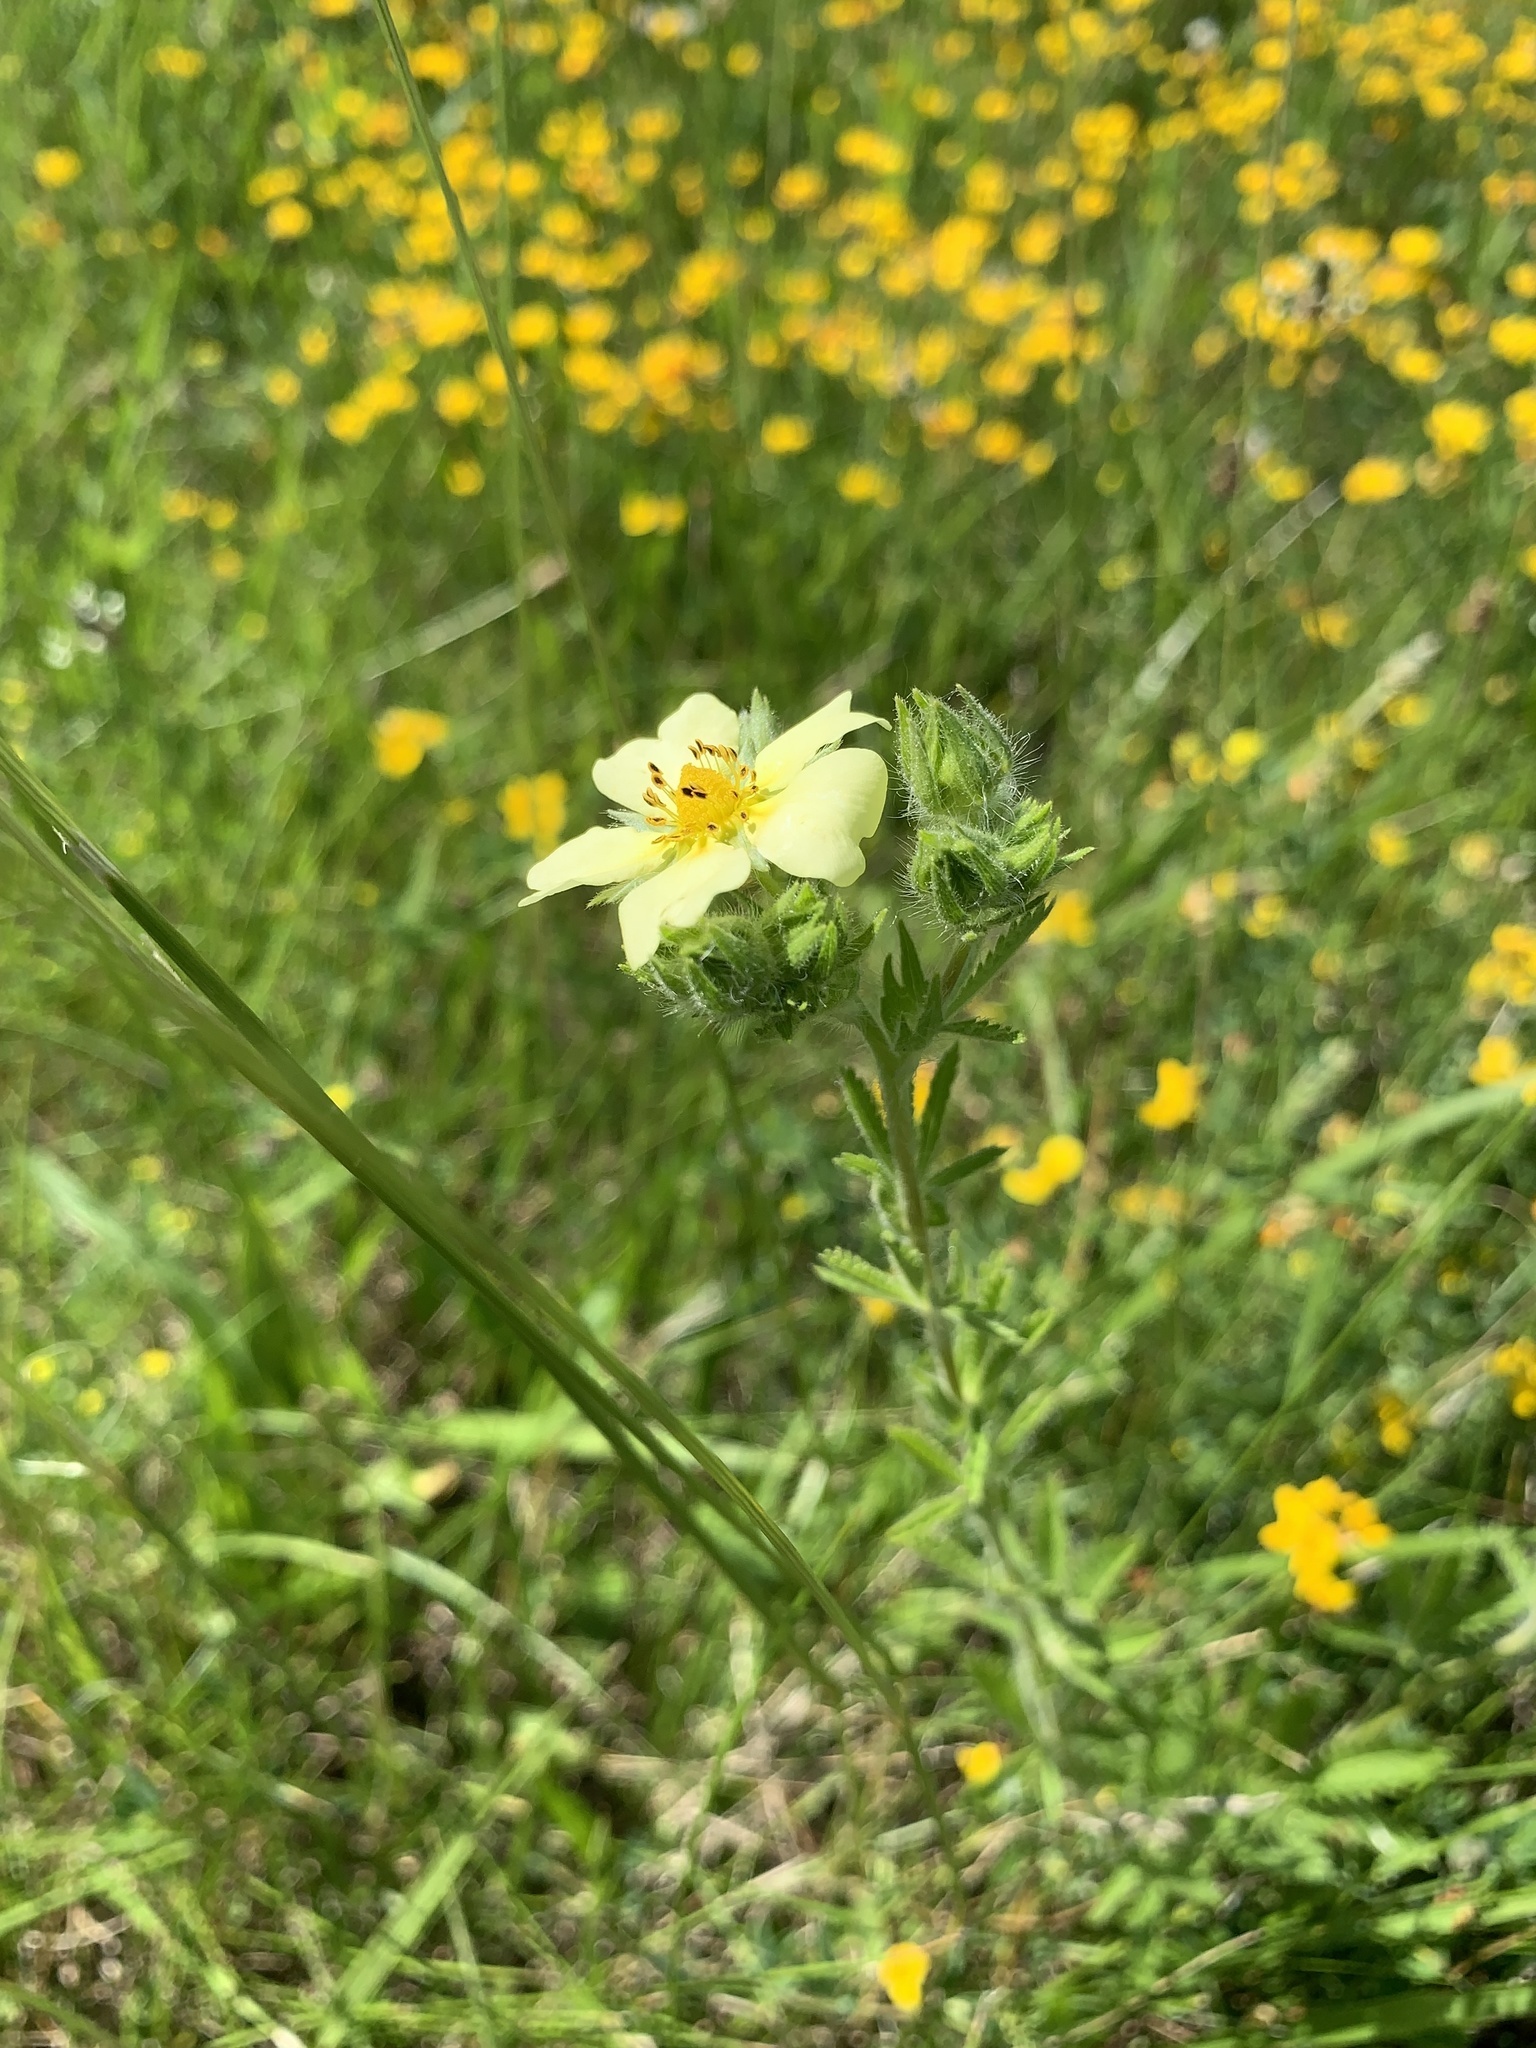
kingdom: Plantae
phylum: Tracheophyta
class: Magnoliopsida
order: Rosales
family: Rosaceae
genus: Potentilla
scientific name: Potentilla recta
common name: Sulphur cinquefoil
